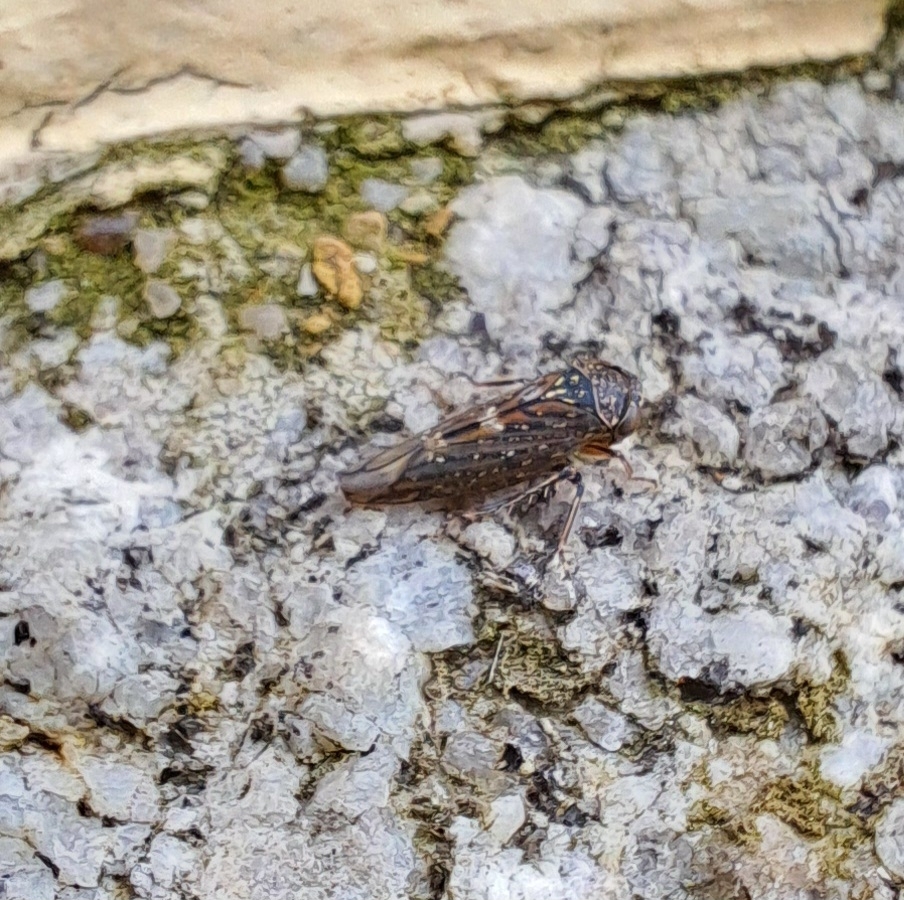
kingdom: Animalia
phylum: Arthropoda
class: Insecta
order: Hemiptera
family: Cicadellidae
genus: Acericerus
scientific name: Acericerus heydenii
